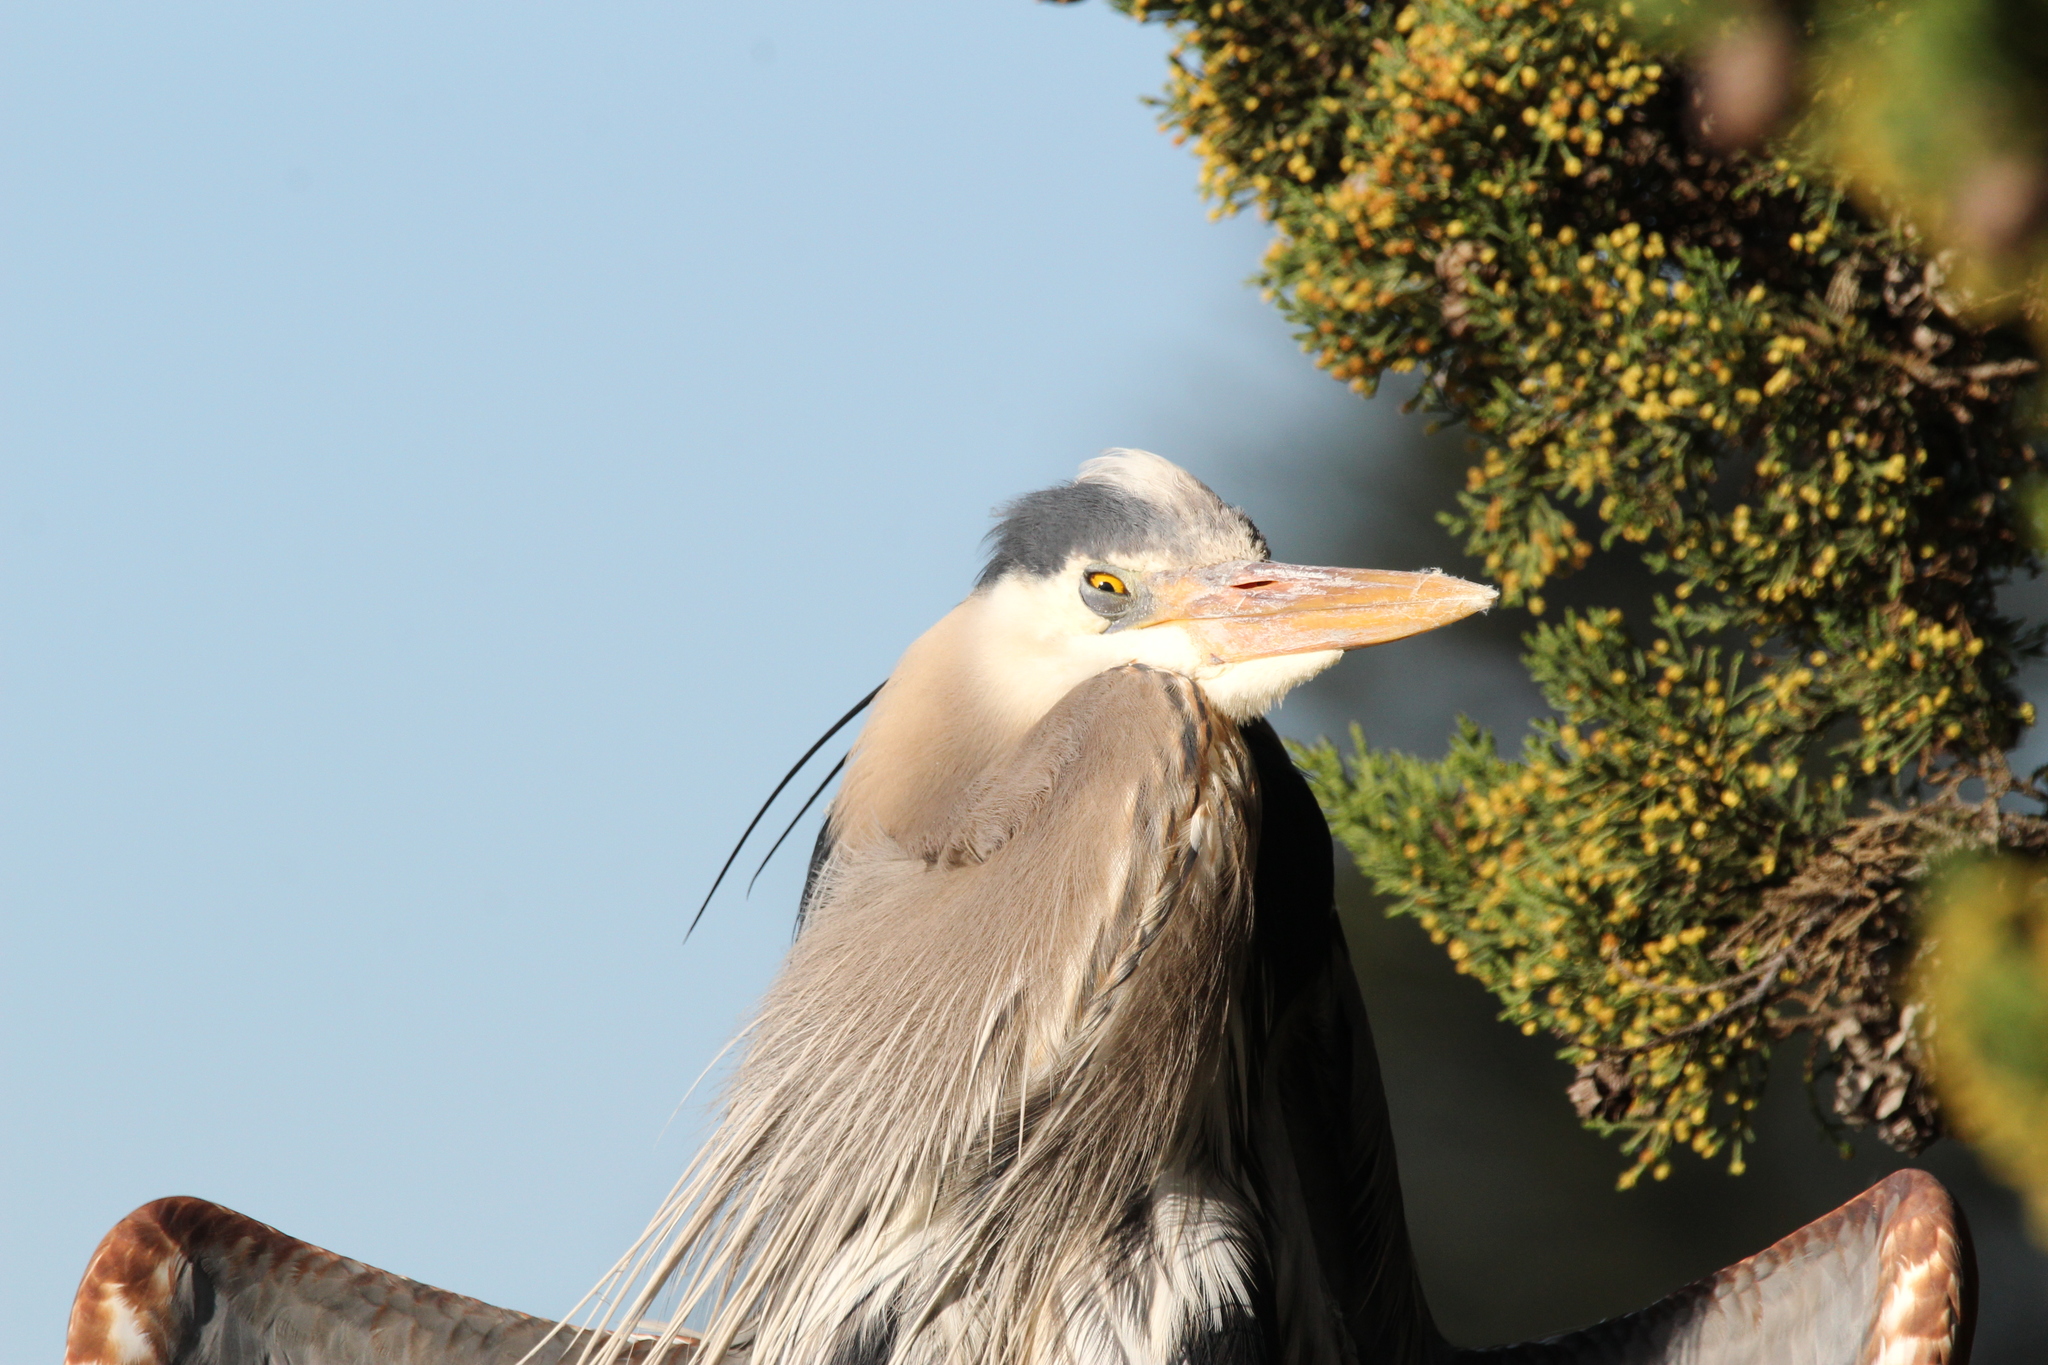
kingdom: Animalia
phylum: Chordata
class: Aves
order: Pelecaniformes
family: Ardeidae
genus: Ardea
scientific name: Ardea herodias
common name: Great blue heron
